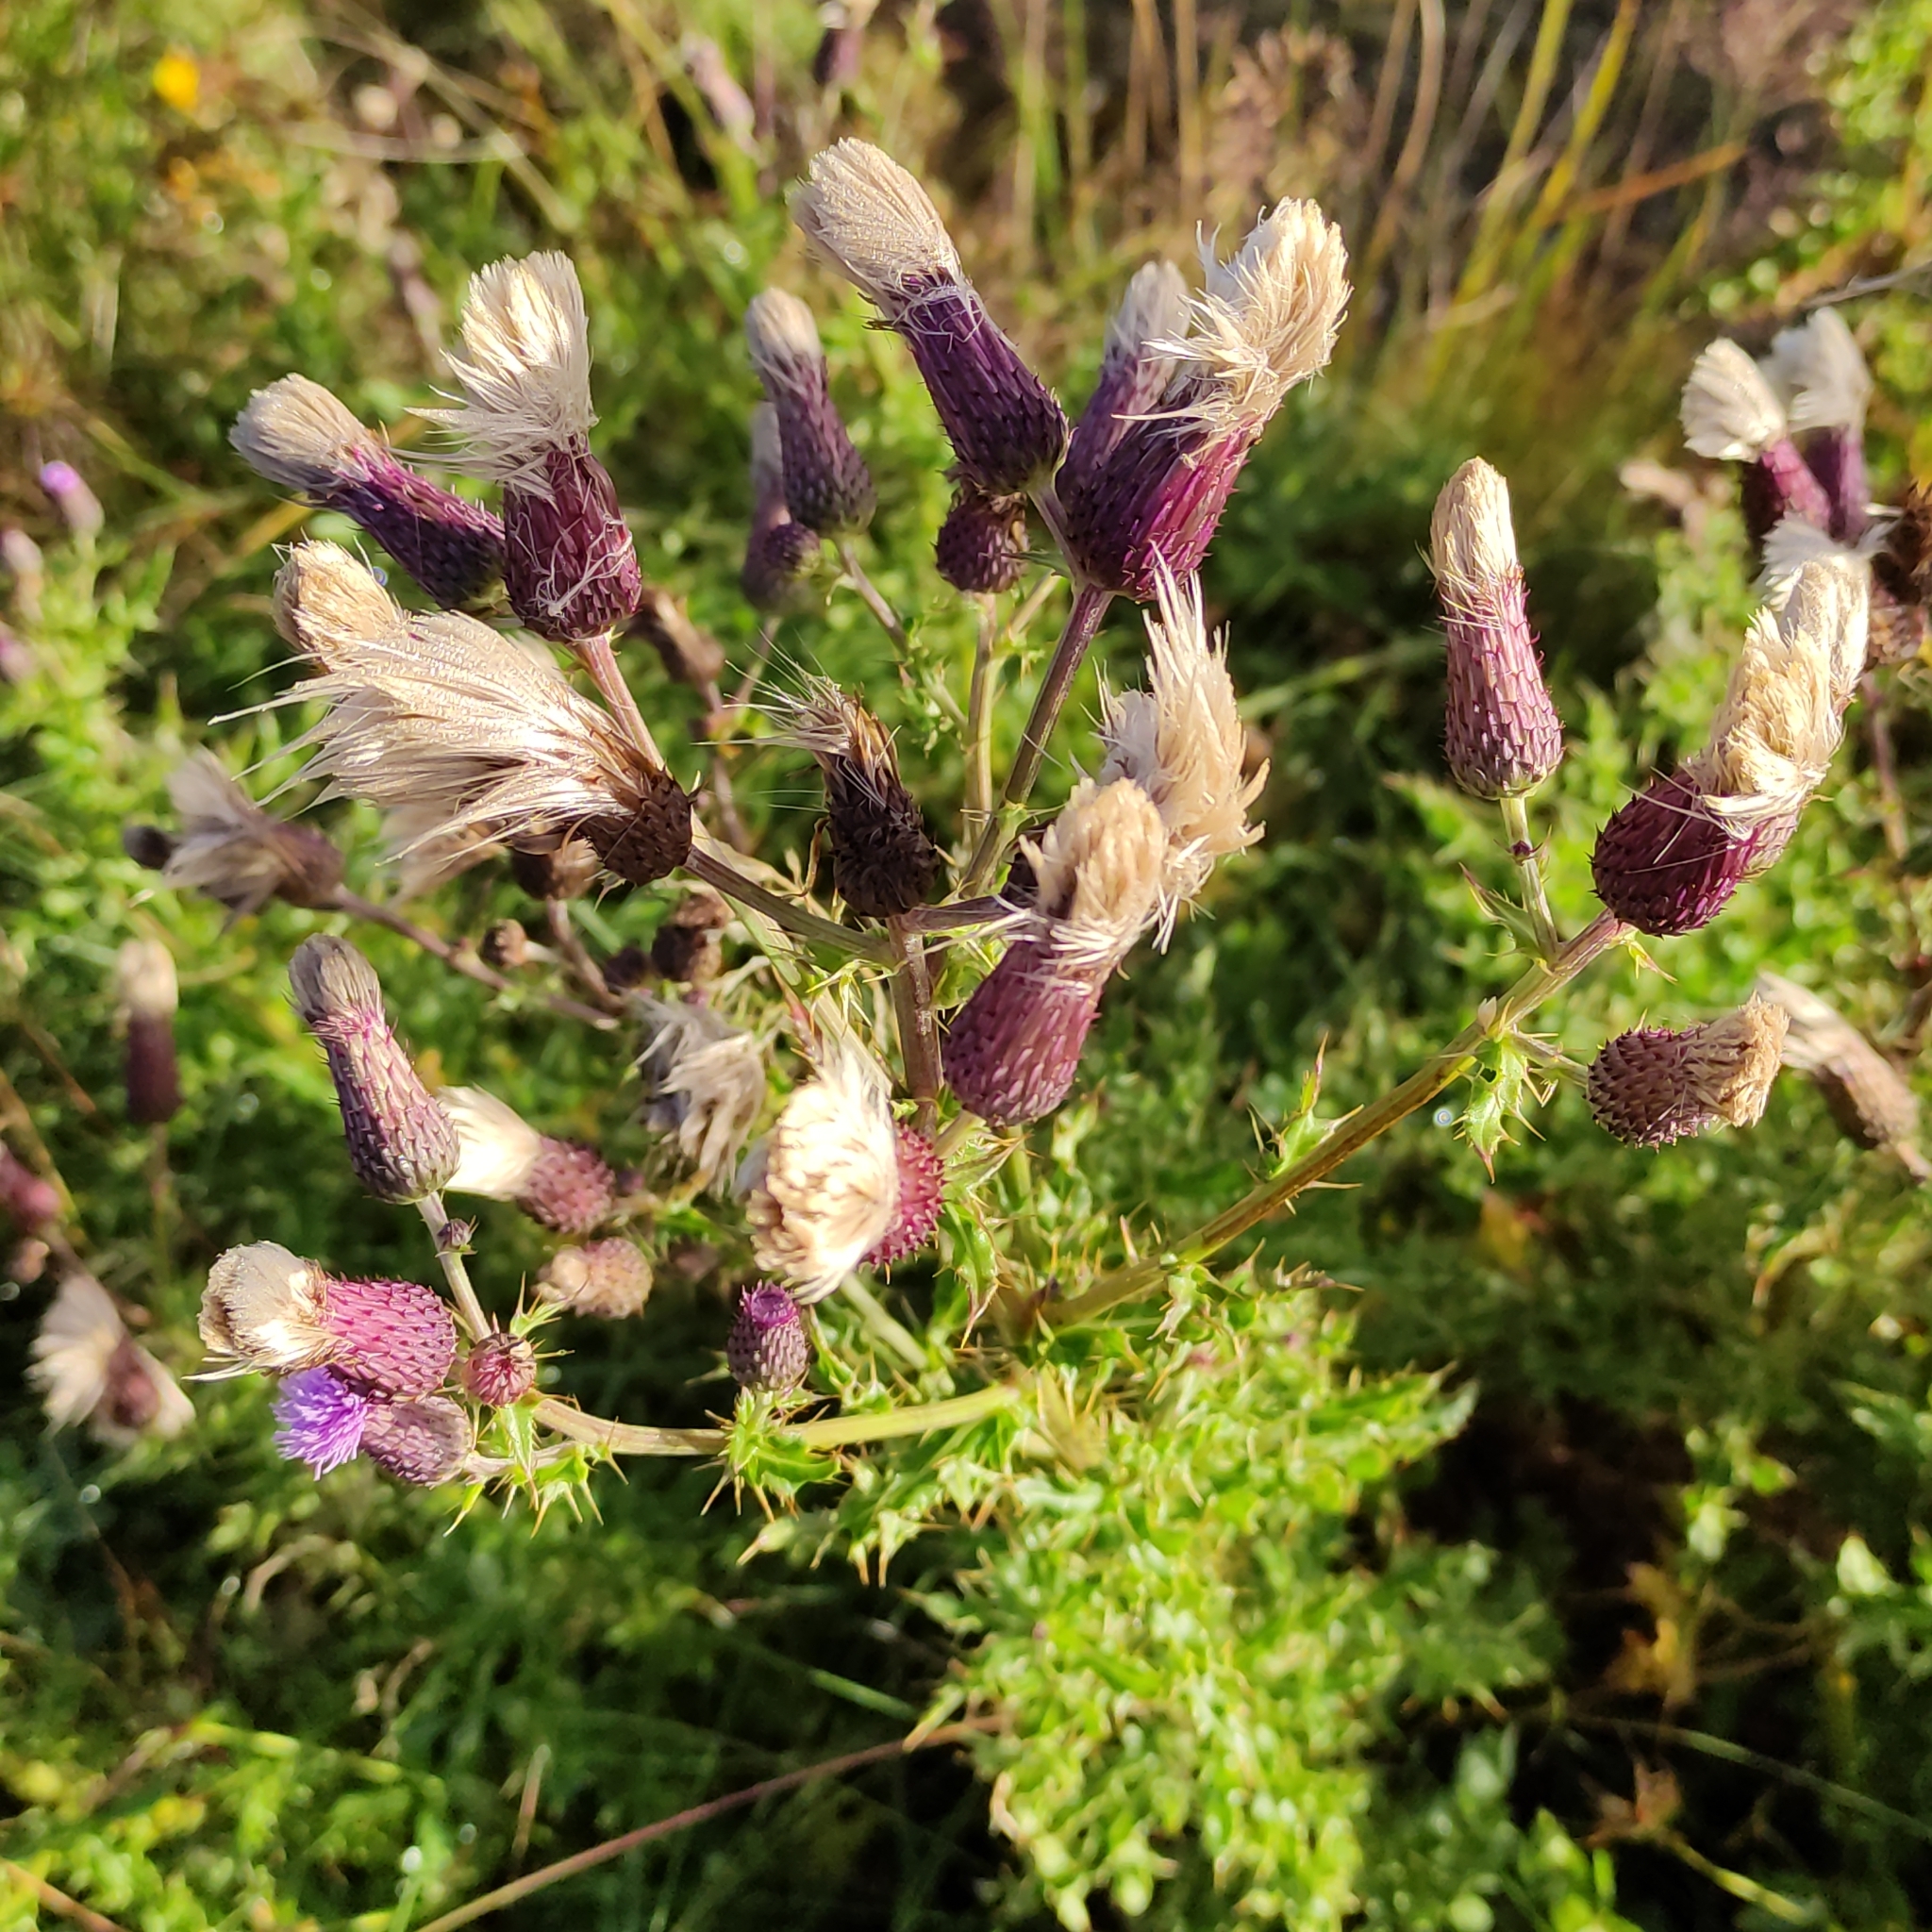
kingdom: Plantae
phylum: Tracheophyta
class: Magnoliopsida
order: Asterales
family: Asteraceae
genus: Cirsium
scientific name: Cirsium arvense
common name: Creeping thistle
